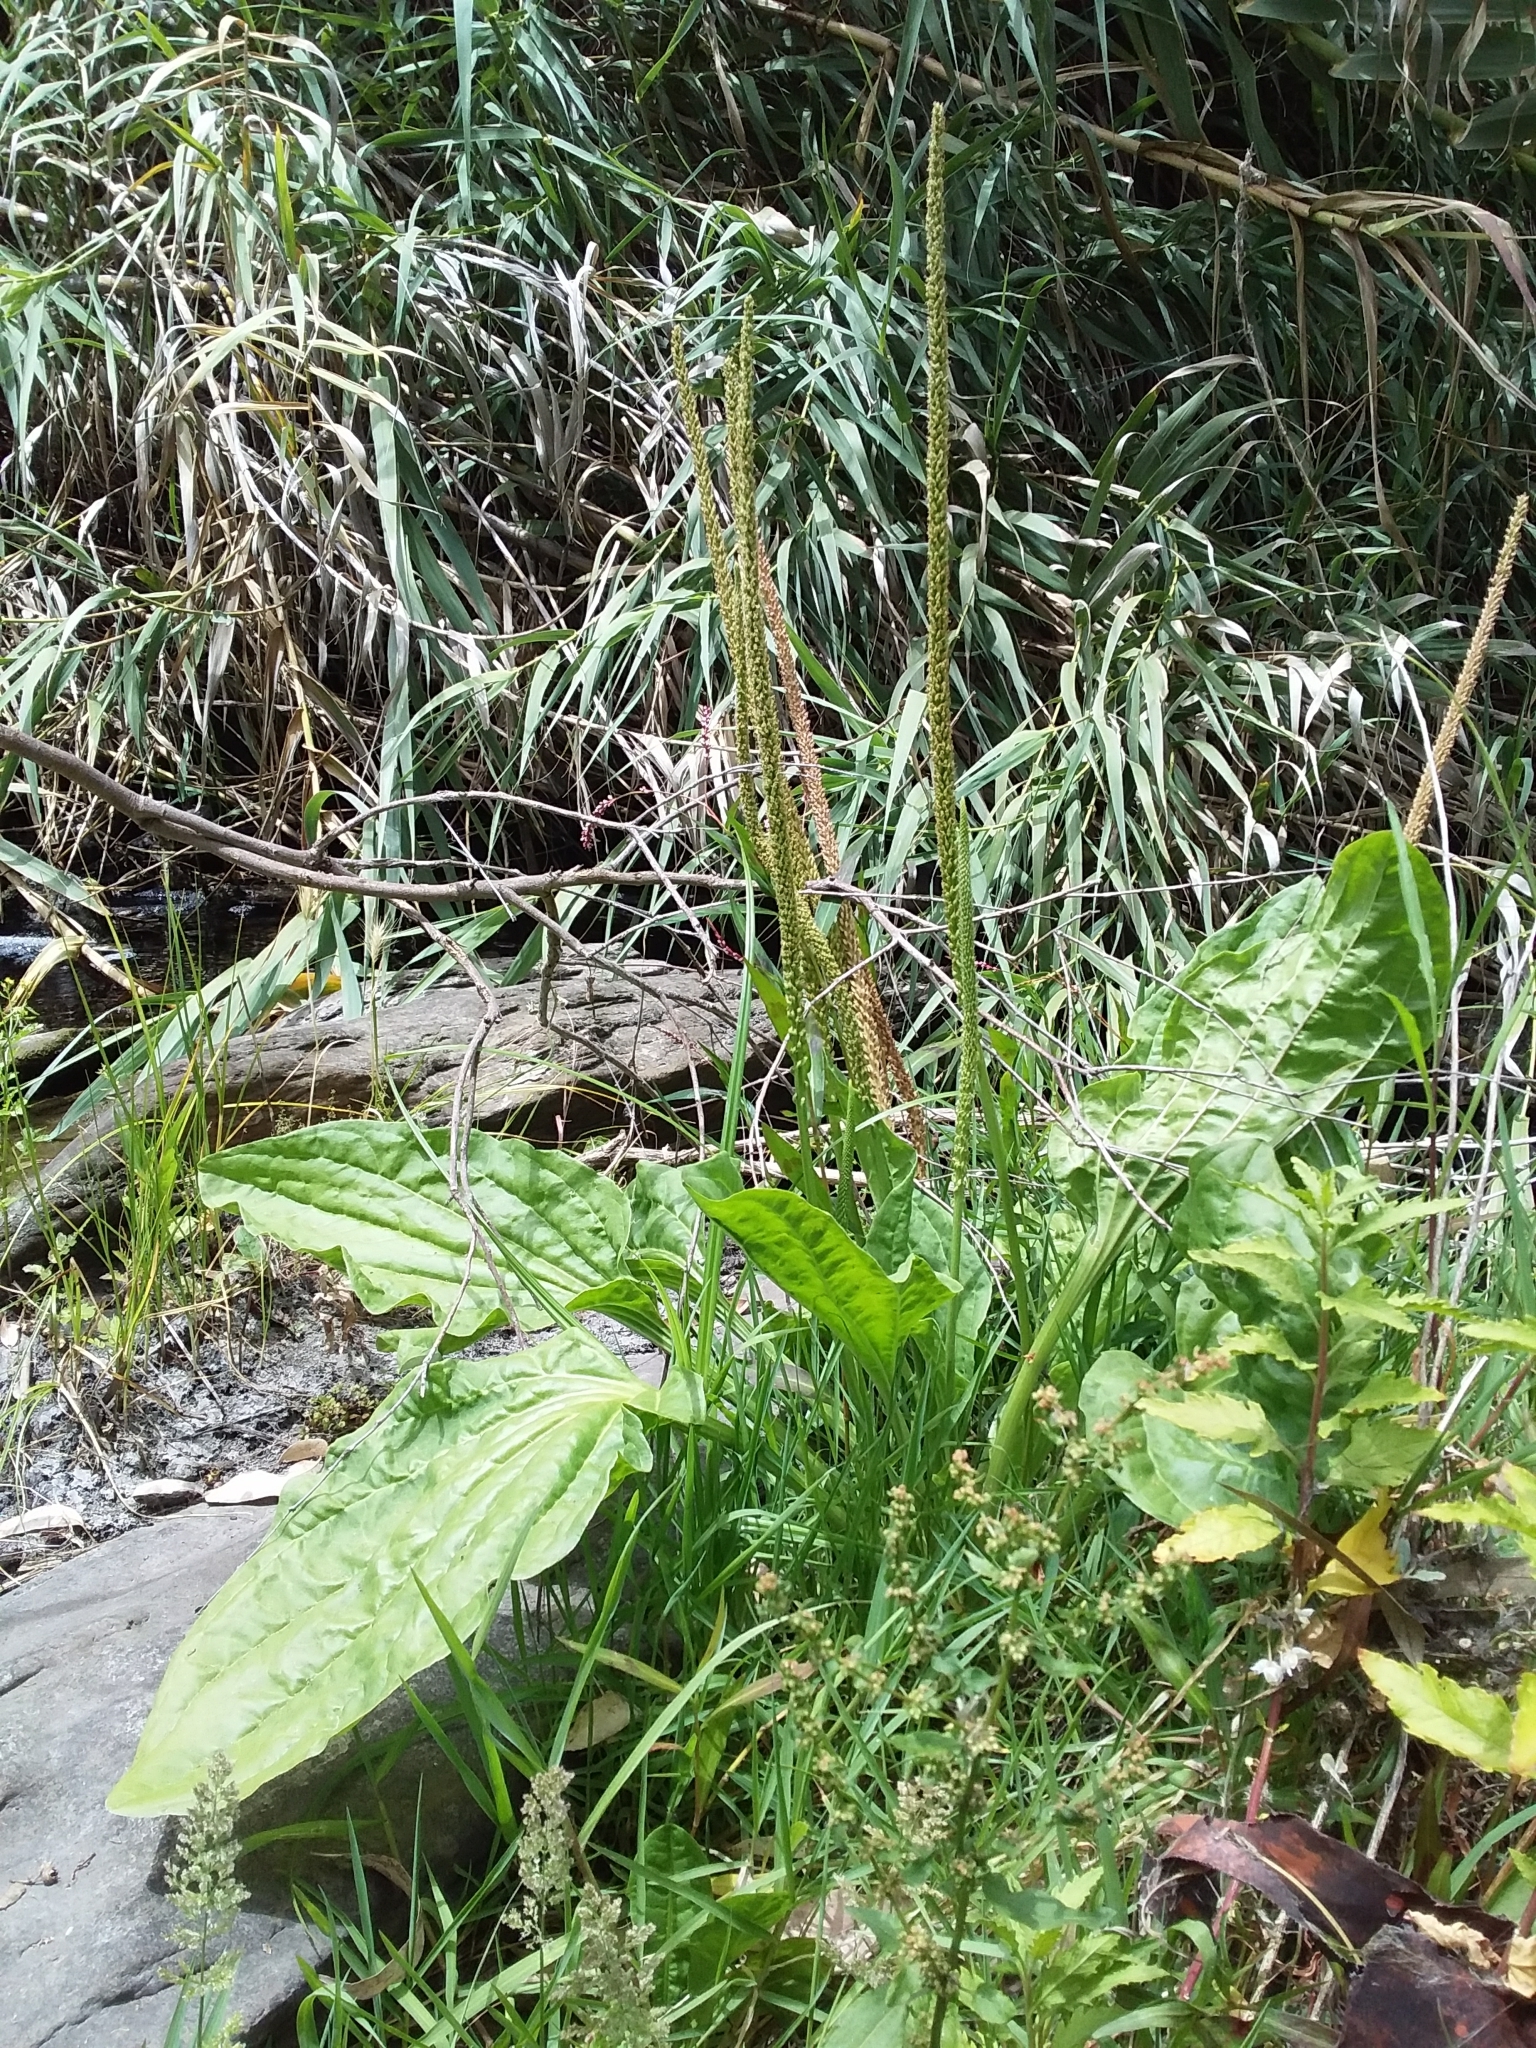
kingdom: Plantae
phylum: Tracheophyta
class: Magnoliopsida
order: Lamiales
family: Plantaginaceae
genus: Plantago
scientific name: Plantago major
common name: Common plantain
